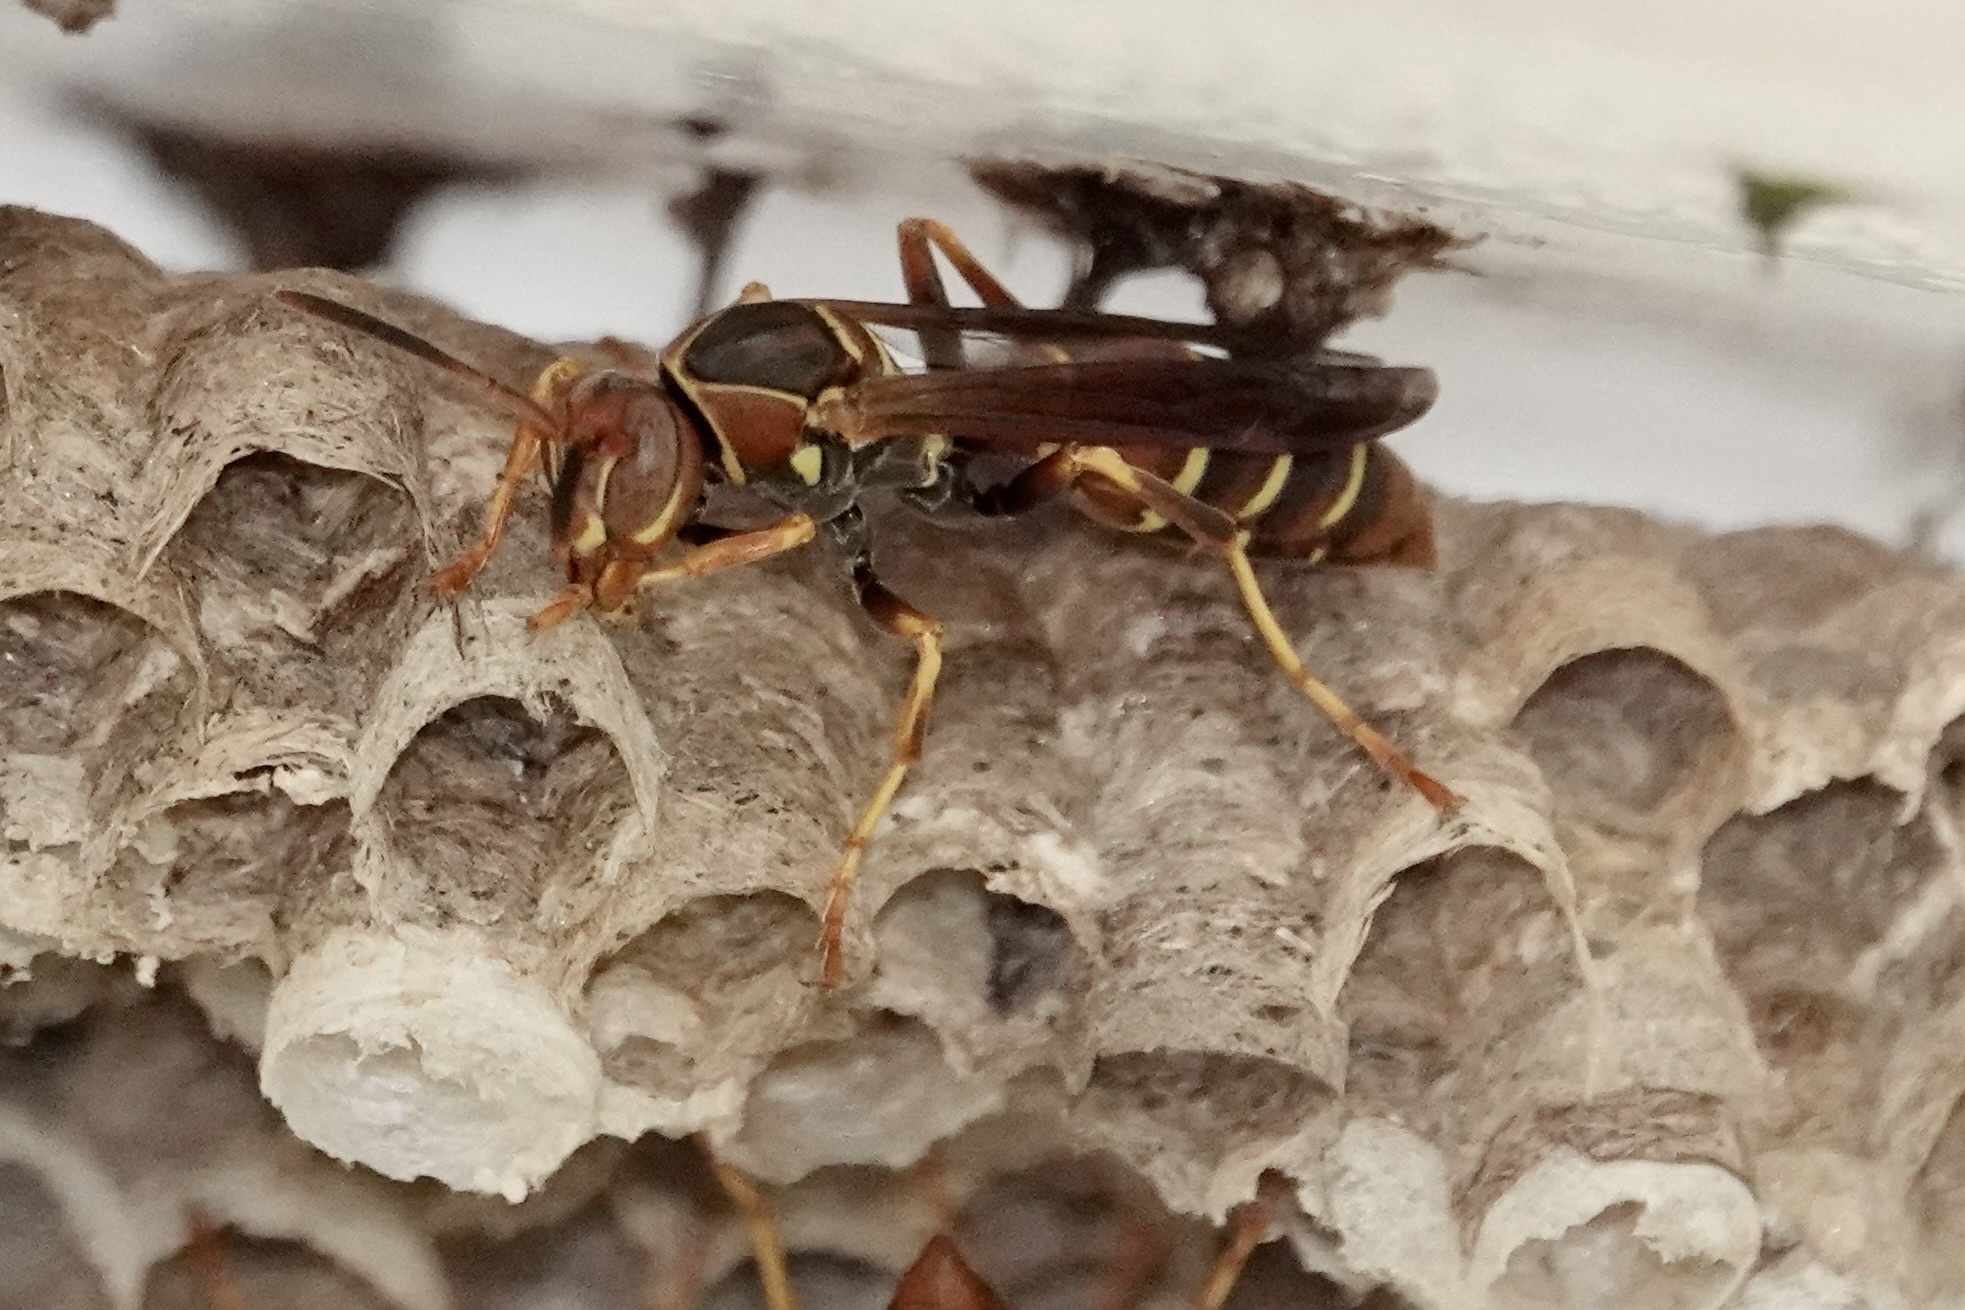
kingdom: Animalia
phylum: Arthropoda
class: Insecta
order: Hymenoptera
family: Eumenidae
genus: Polistes
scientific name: Polistes dorsalis
